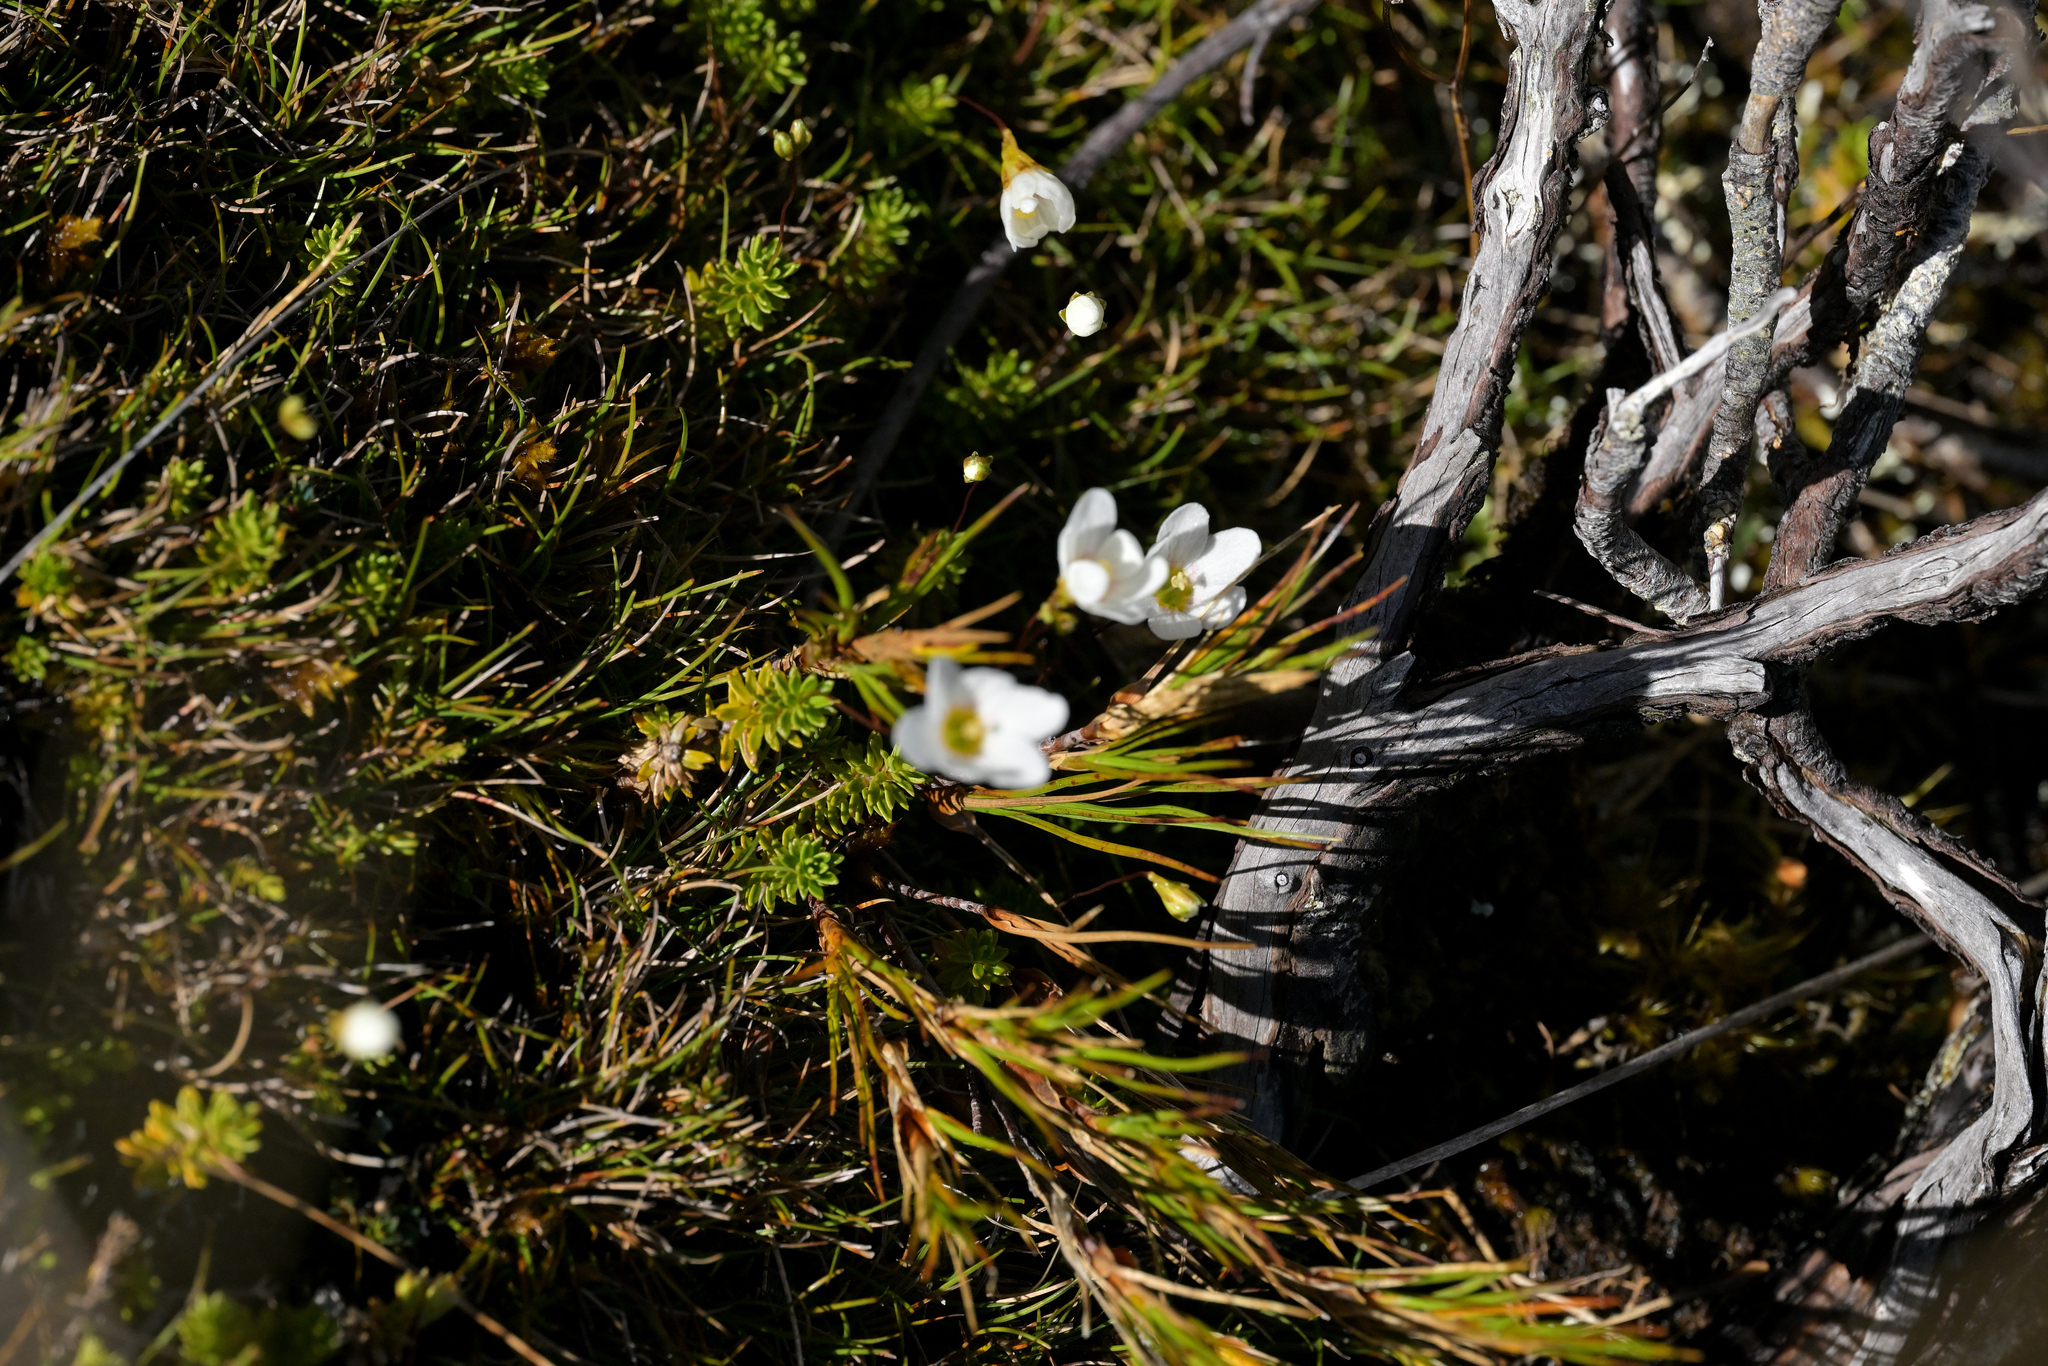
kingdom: Plantae
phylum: Tracheophyta
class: Magnoliopsida
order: Asterales
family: Stylidiaceae
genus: Forstera
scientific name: Forstera mackayi
